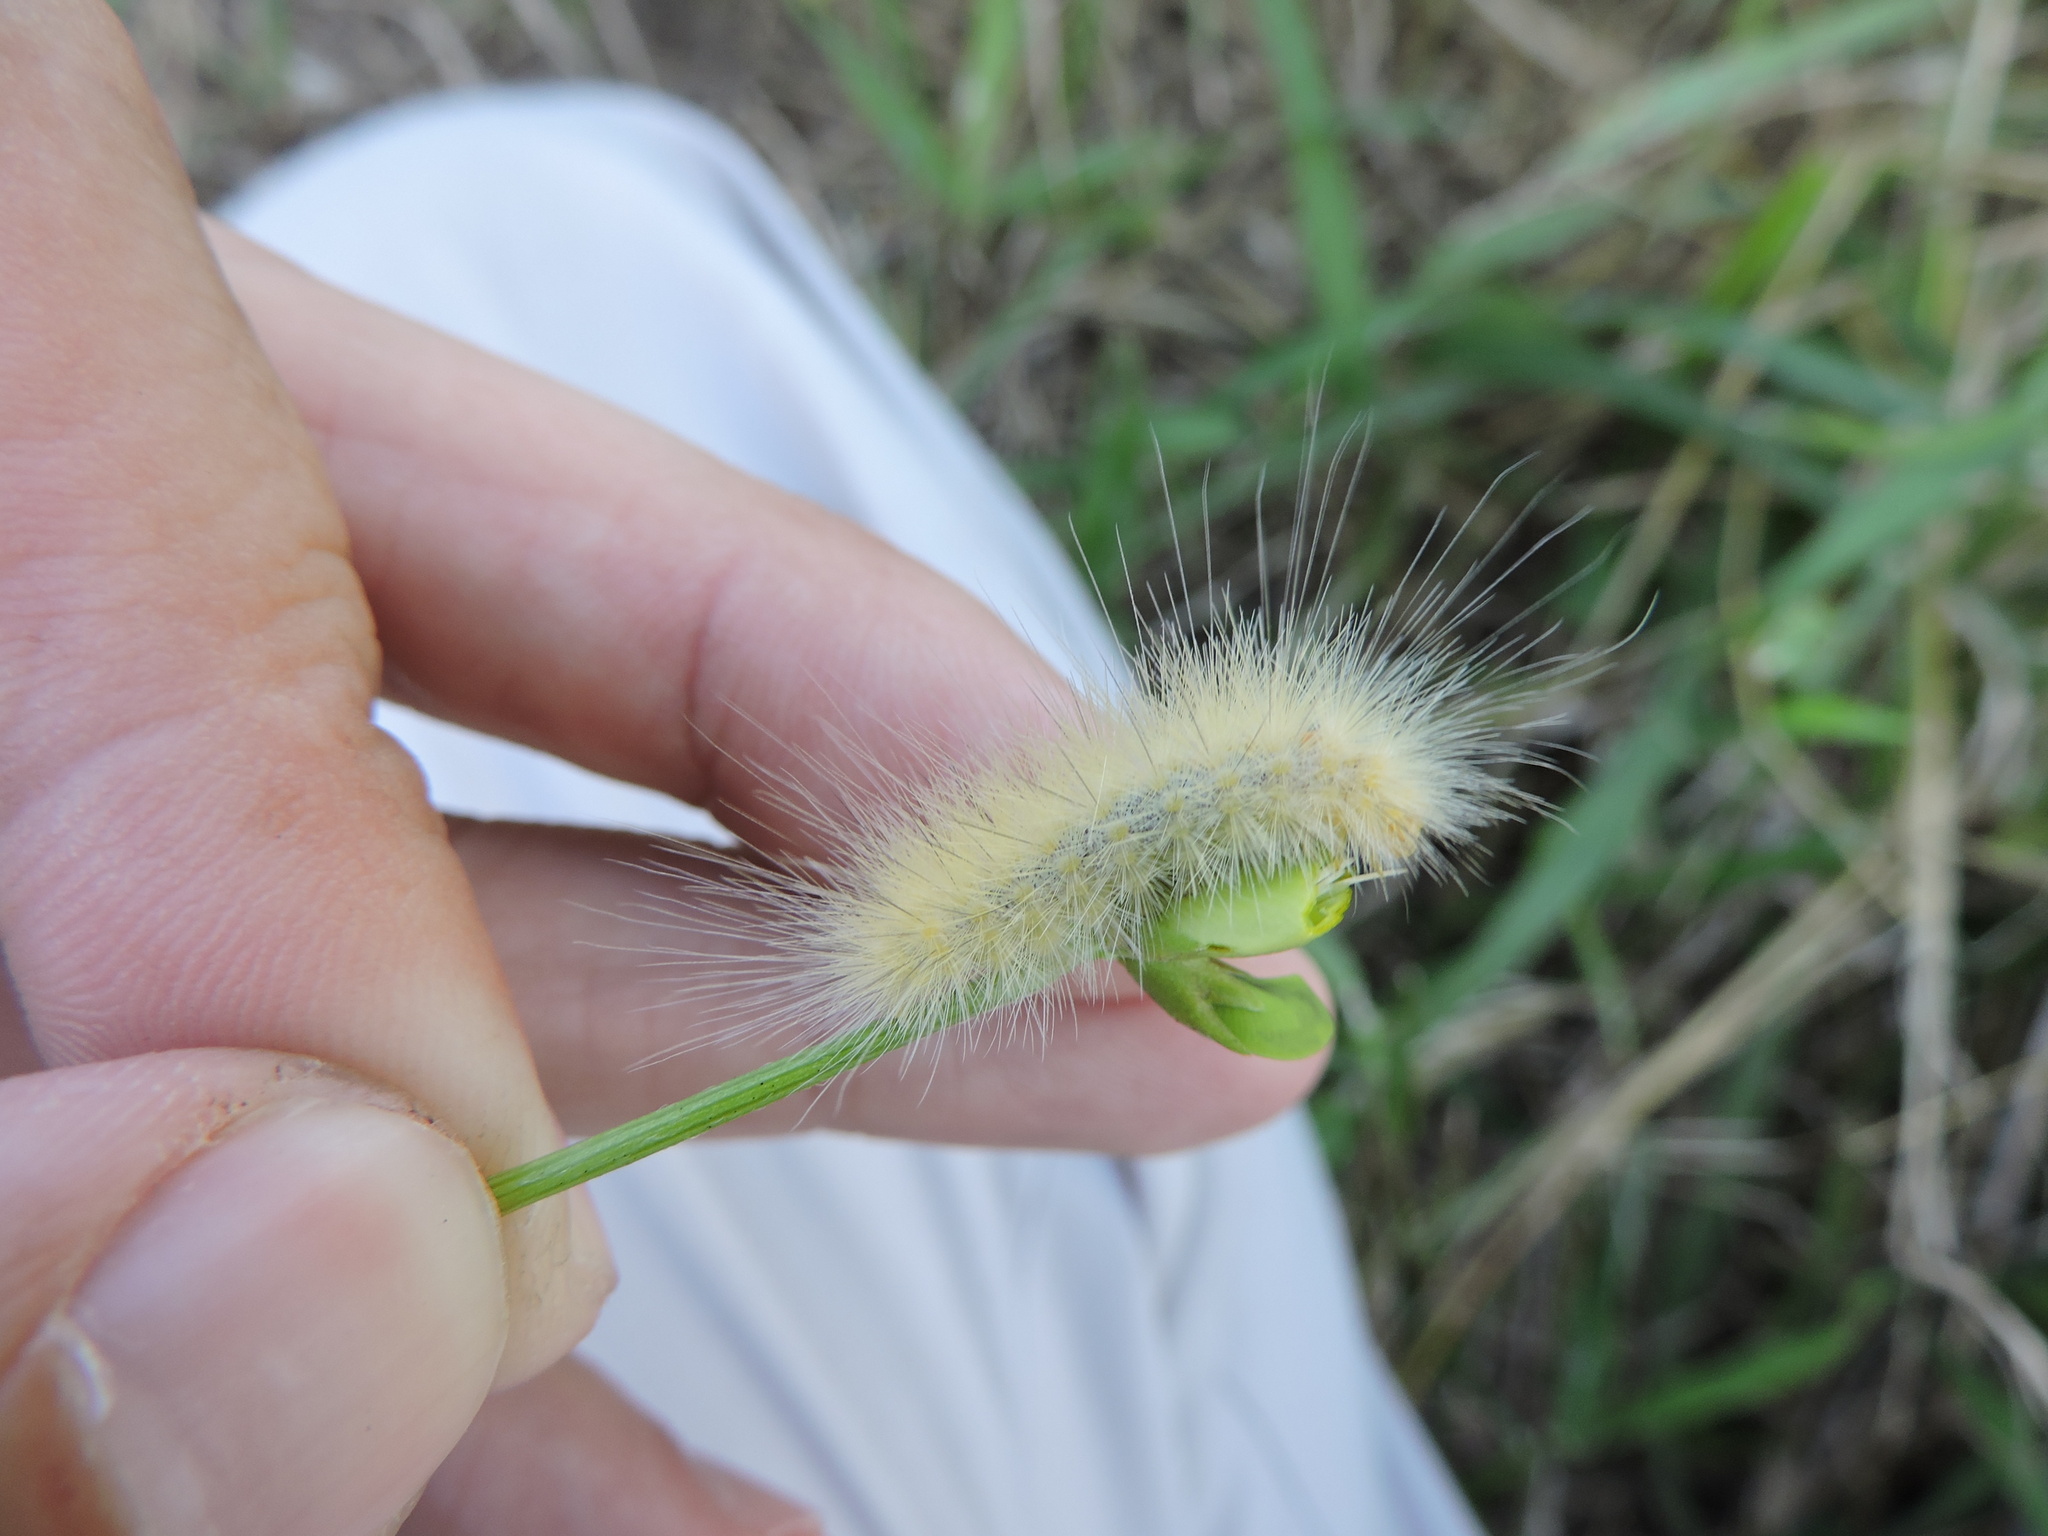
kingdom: Animalia
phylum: Arthropoda
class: Insecta
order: Lepidoptera
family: Erebidae
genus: Spilosoma
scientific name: Spilosoma virginica
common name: Virginia tiger moth
